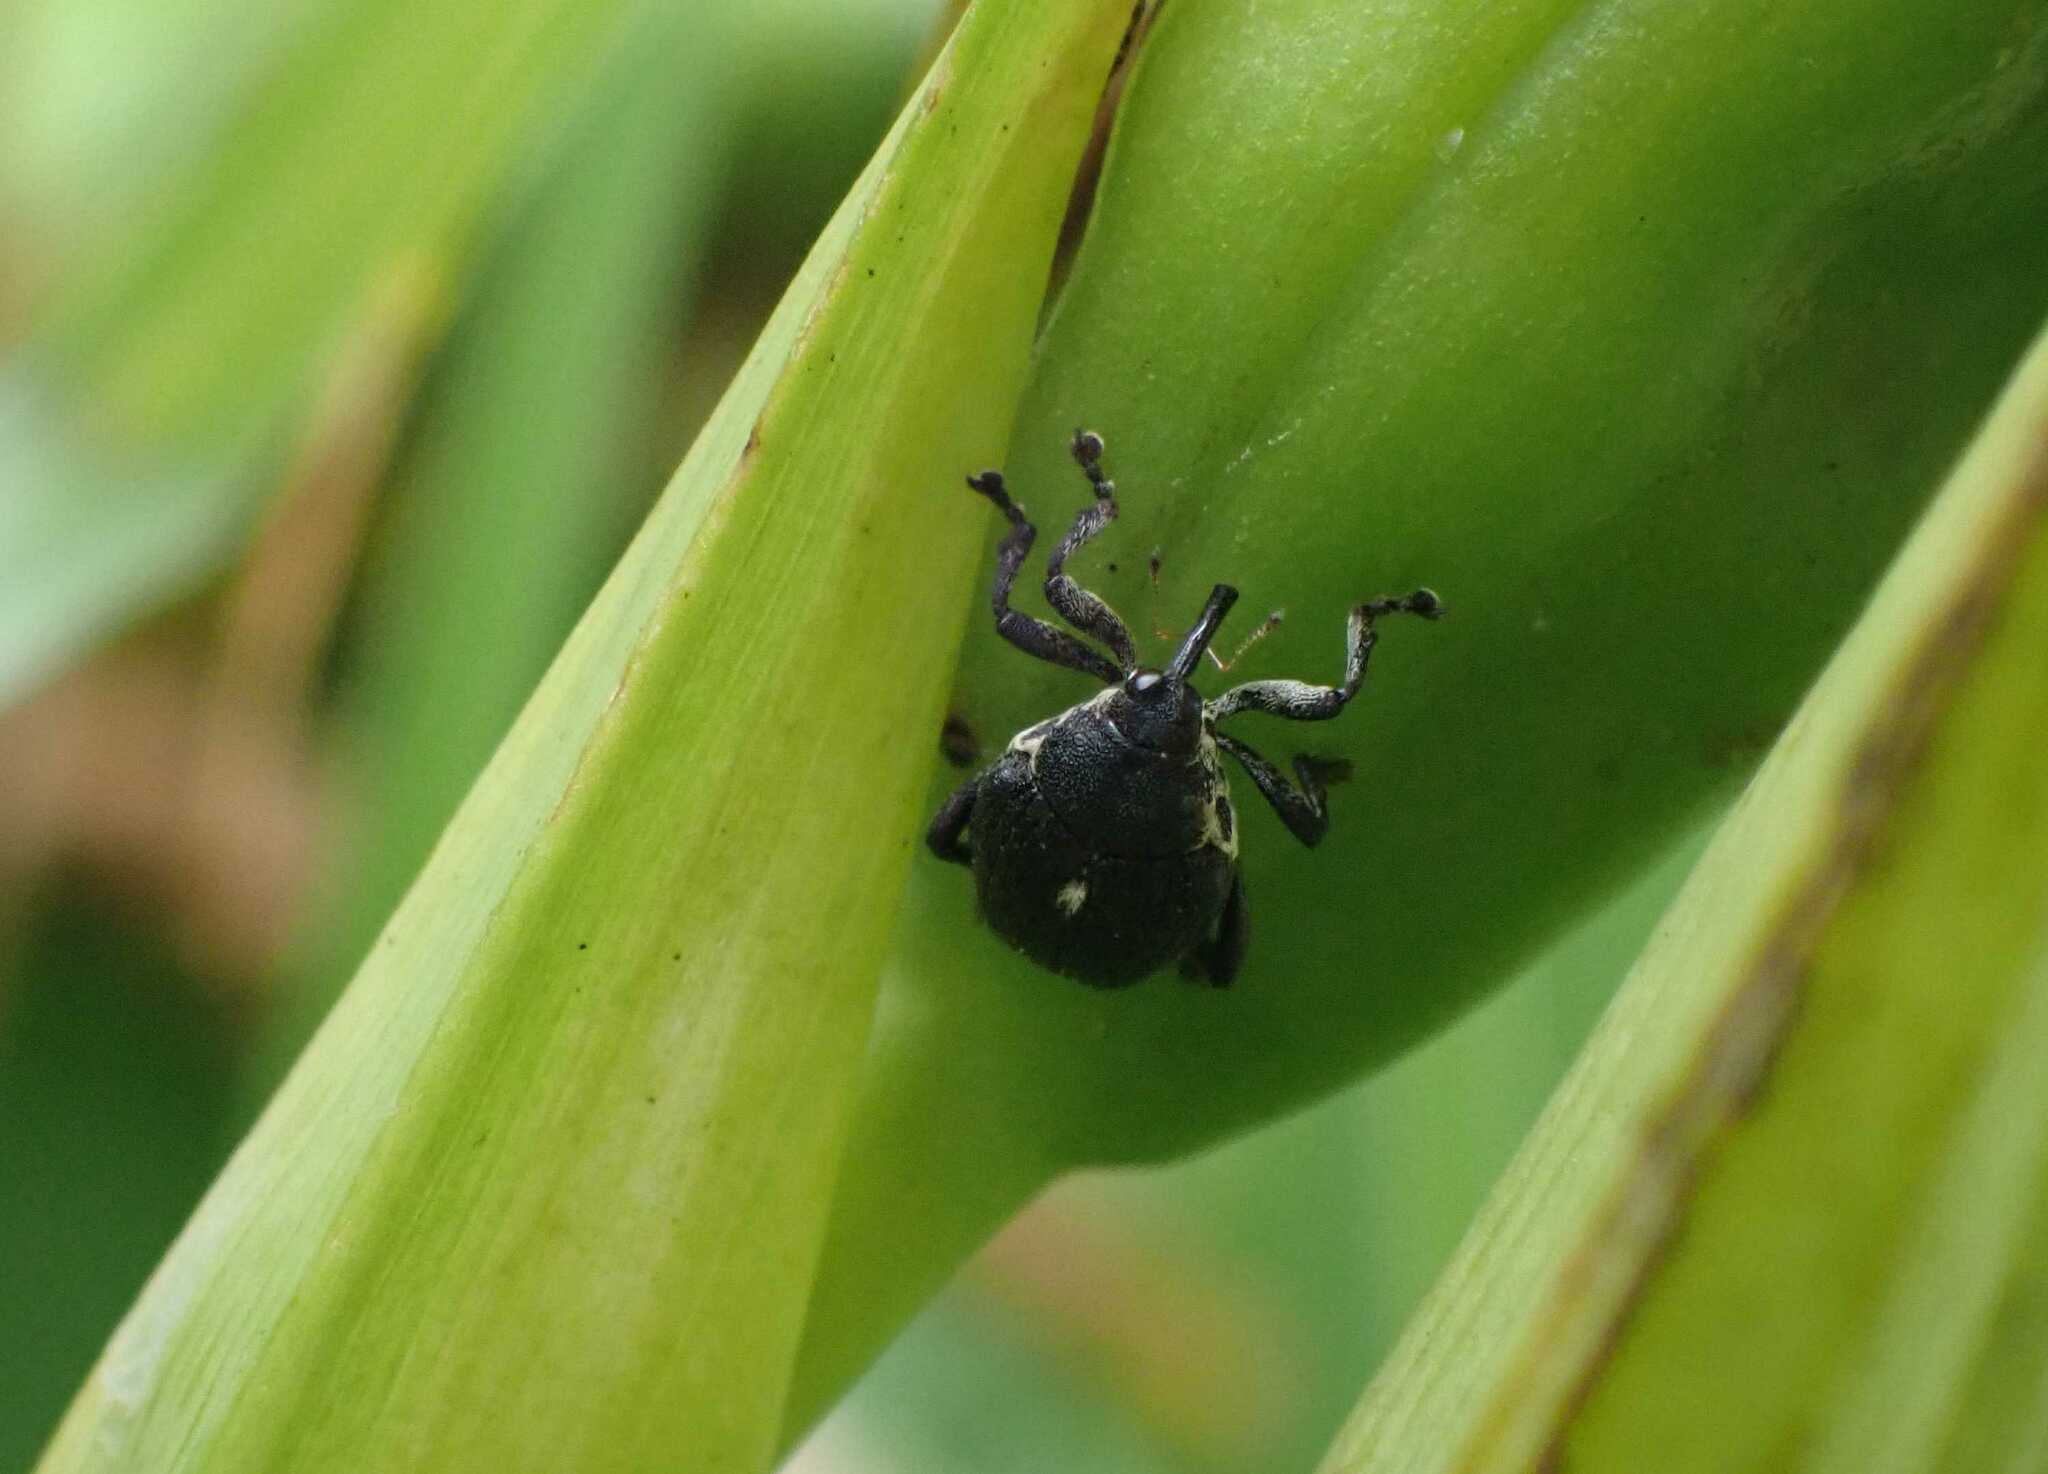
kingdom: Animalia
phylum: Arthropoda
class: Insecta
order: Coleoptera
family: Curculionidae
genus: Mononychus
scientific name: Mononychus punctumalbum
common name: Iris weevil
